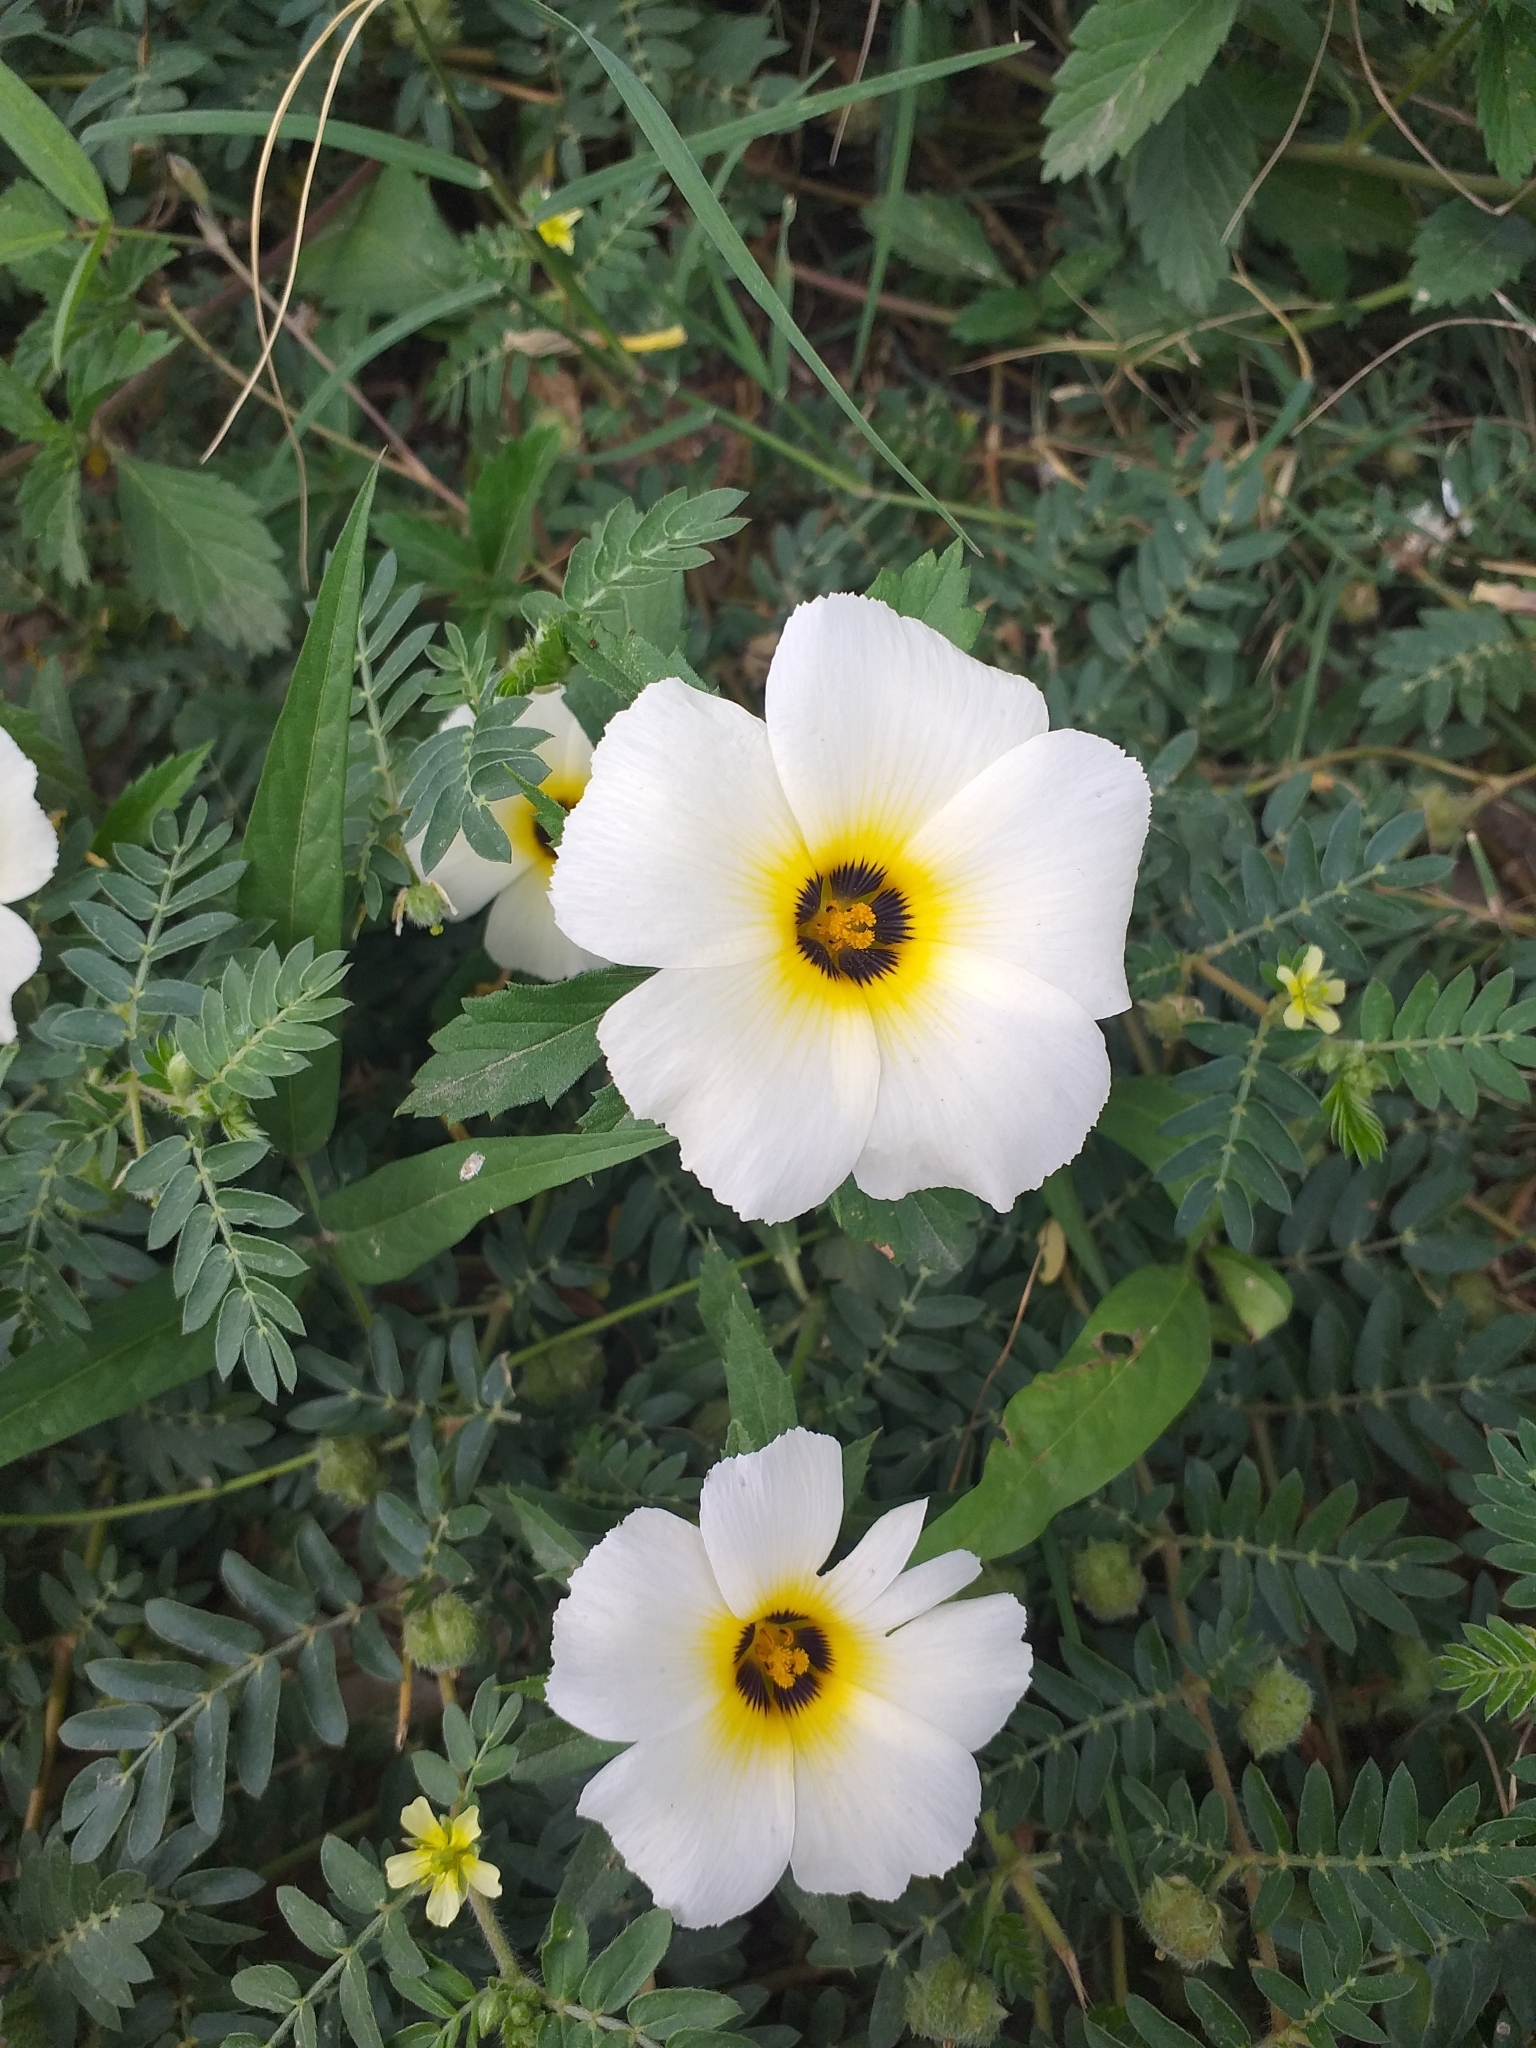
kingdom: Plantae
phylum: Tracheophyta
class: Magnoliopsida
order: Malpighiales
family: Turneraceae
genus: Turnera
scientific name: Turnera subulata
